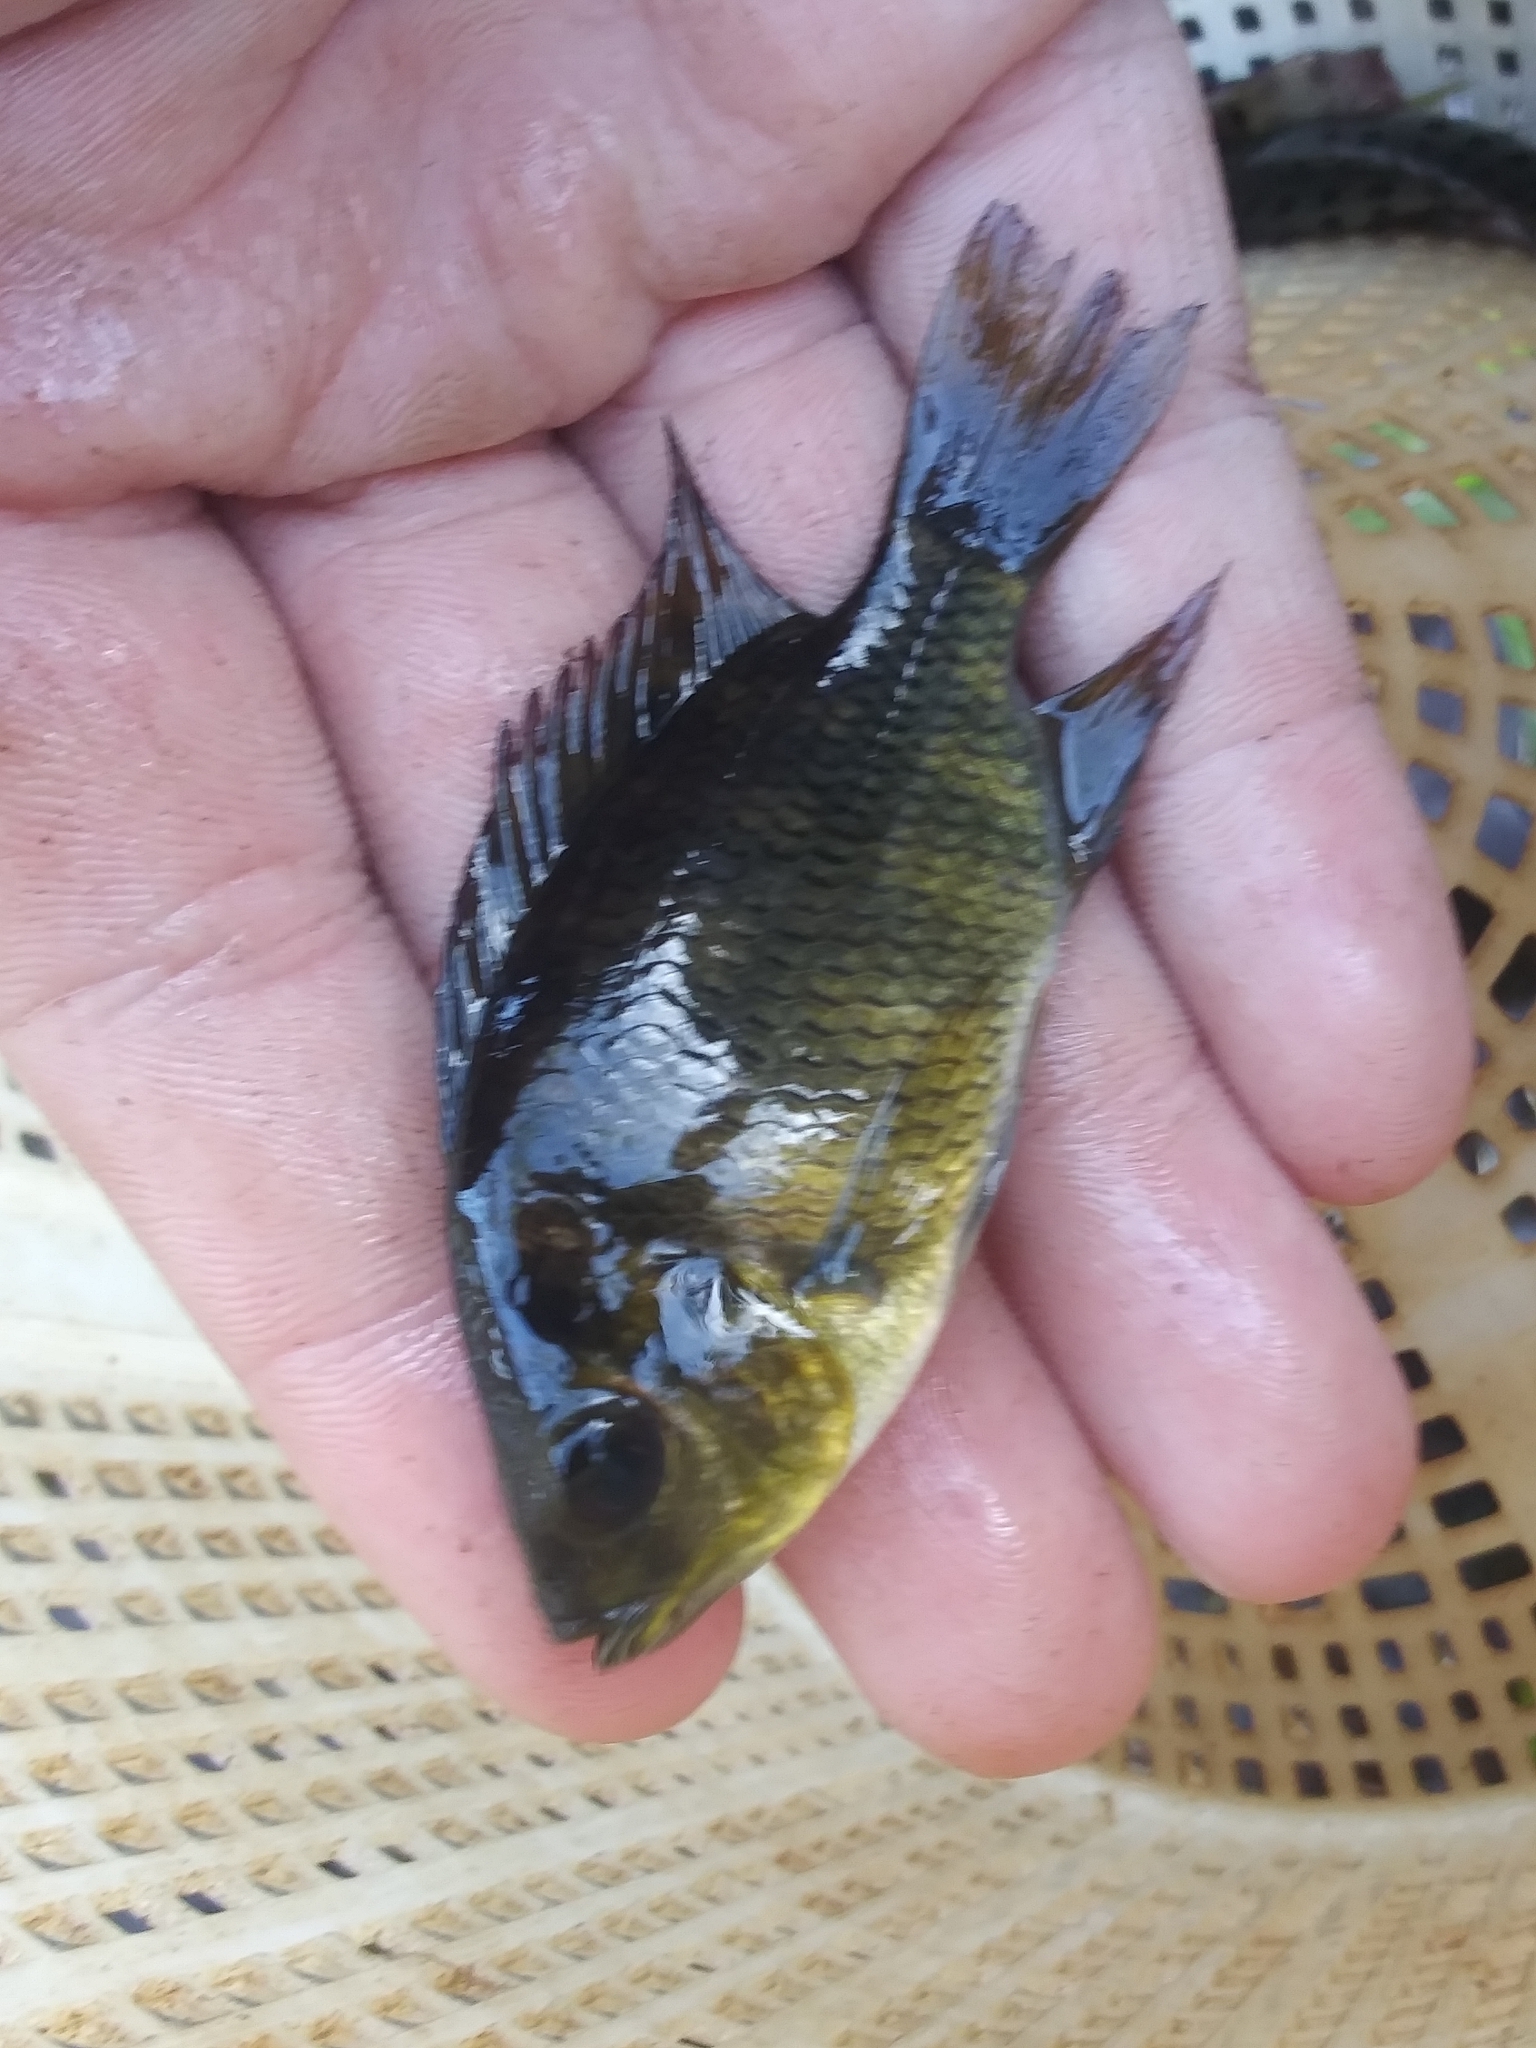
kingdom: Animalia
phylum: Chordata
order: Perciformes
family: Cichlidae
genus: Pelmatolapia
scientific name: Pelmatolapia mariae
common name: Spotted tilapia
